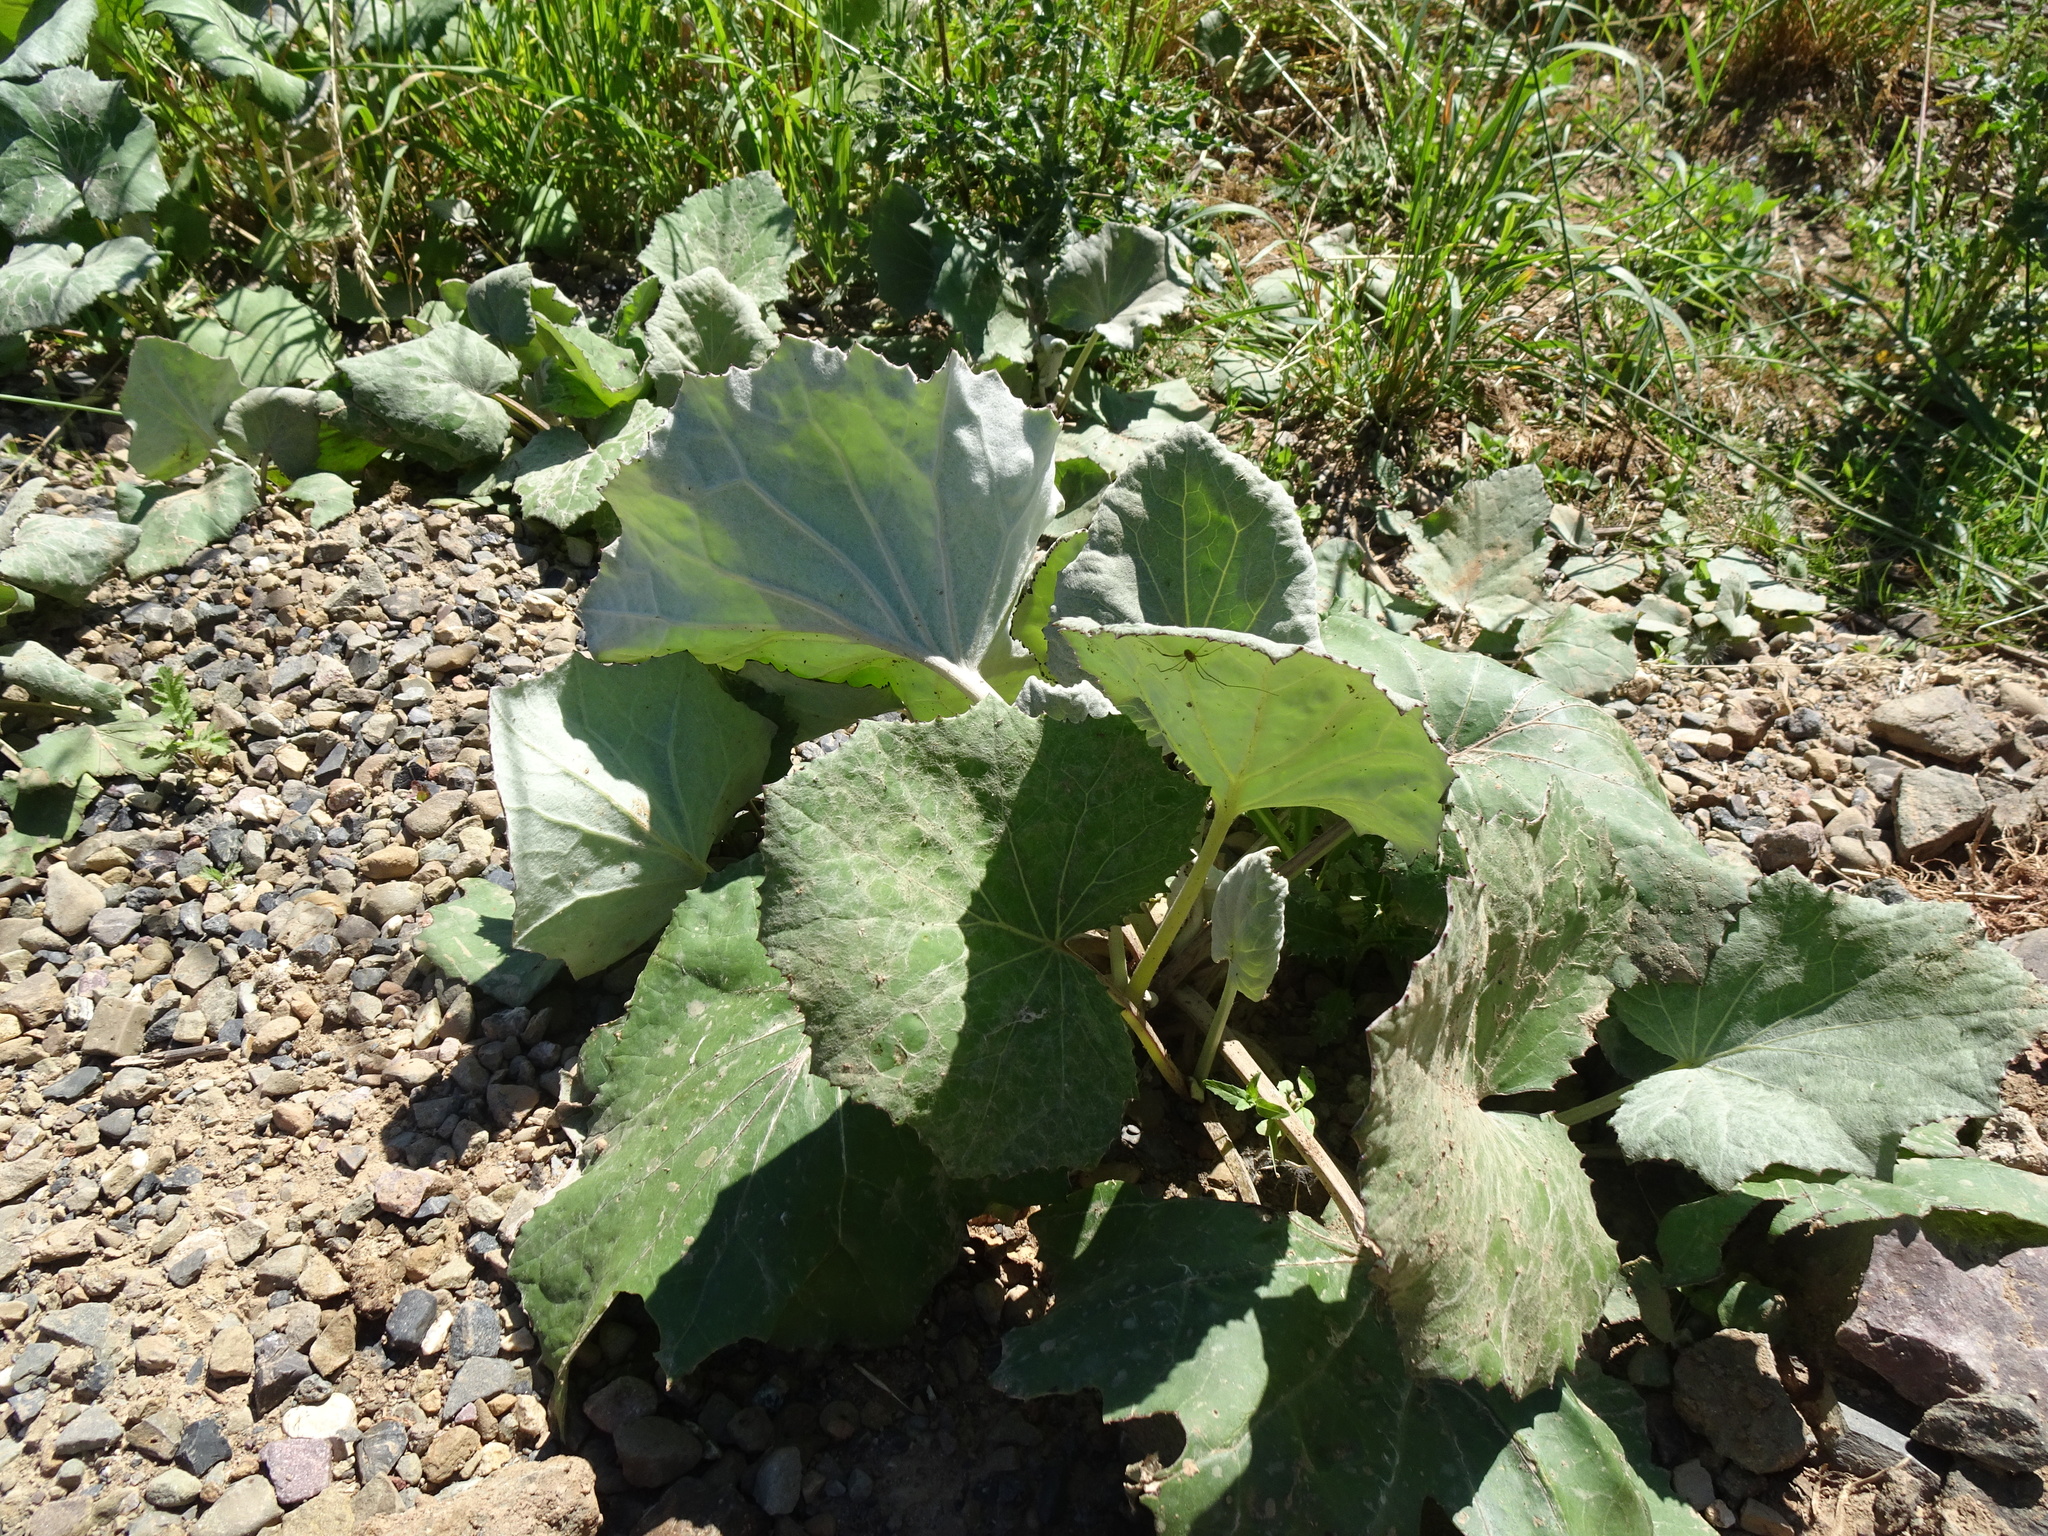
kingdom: Plantae
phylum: Tracheophyta
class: Magnoliopsida
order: Asterales
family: Asteraceae
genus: Tussilago
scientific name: Tussilago farfara
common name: Coltsfoot
